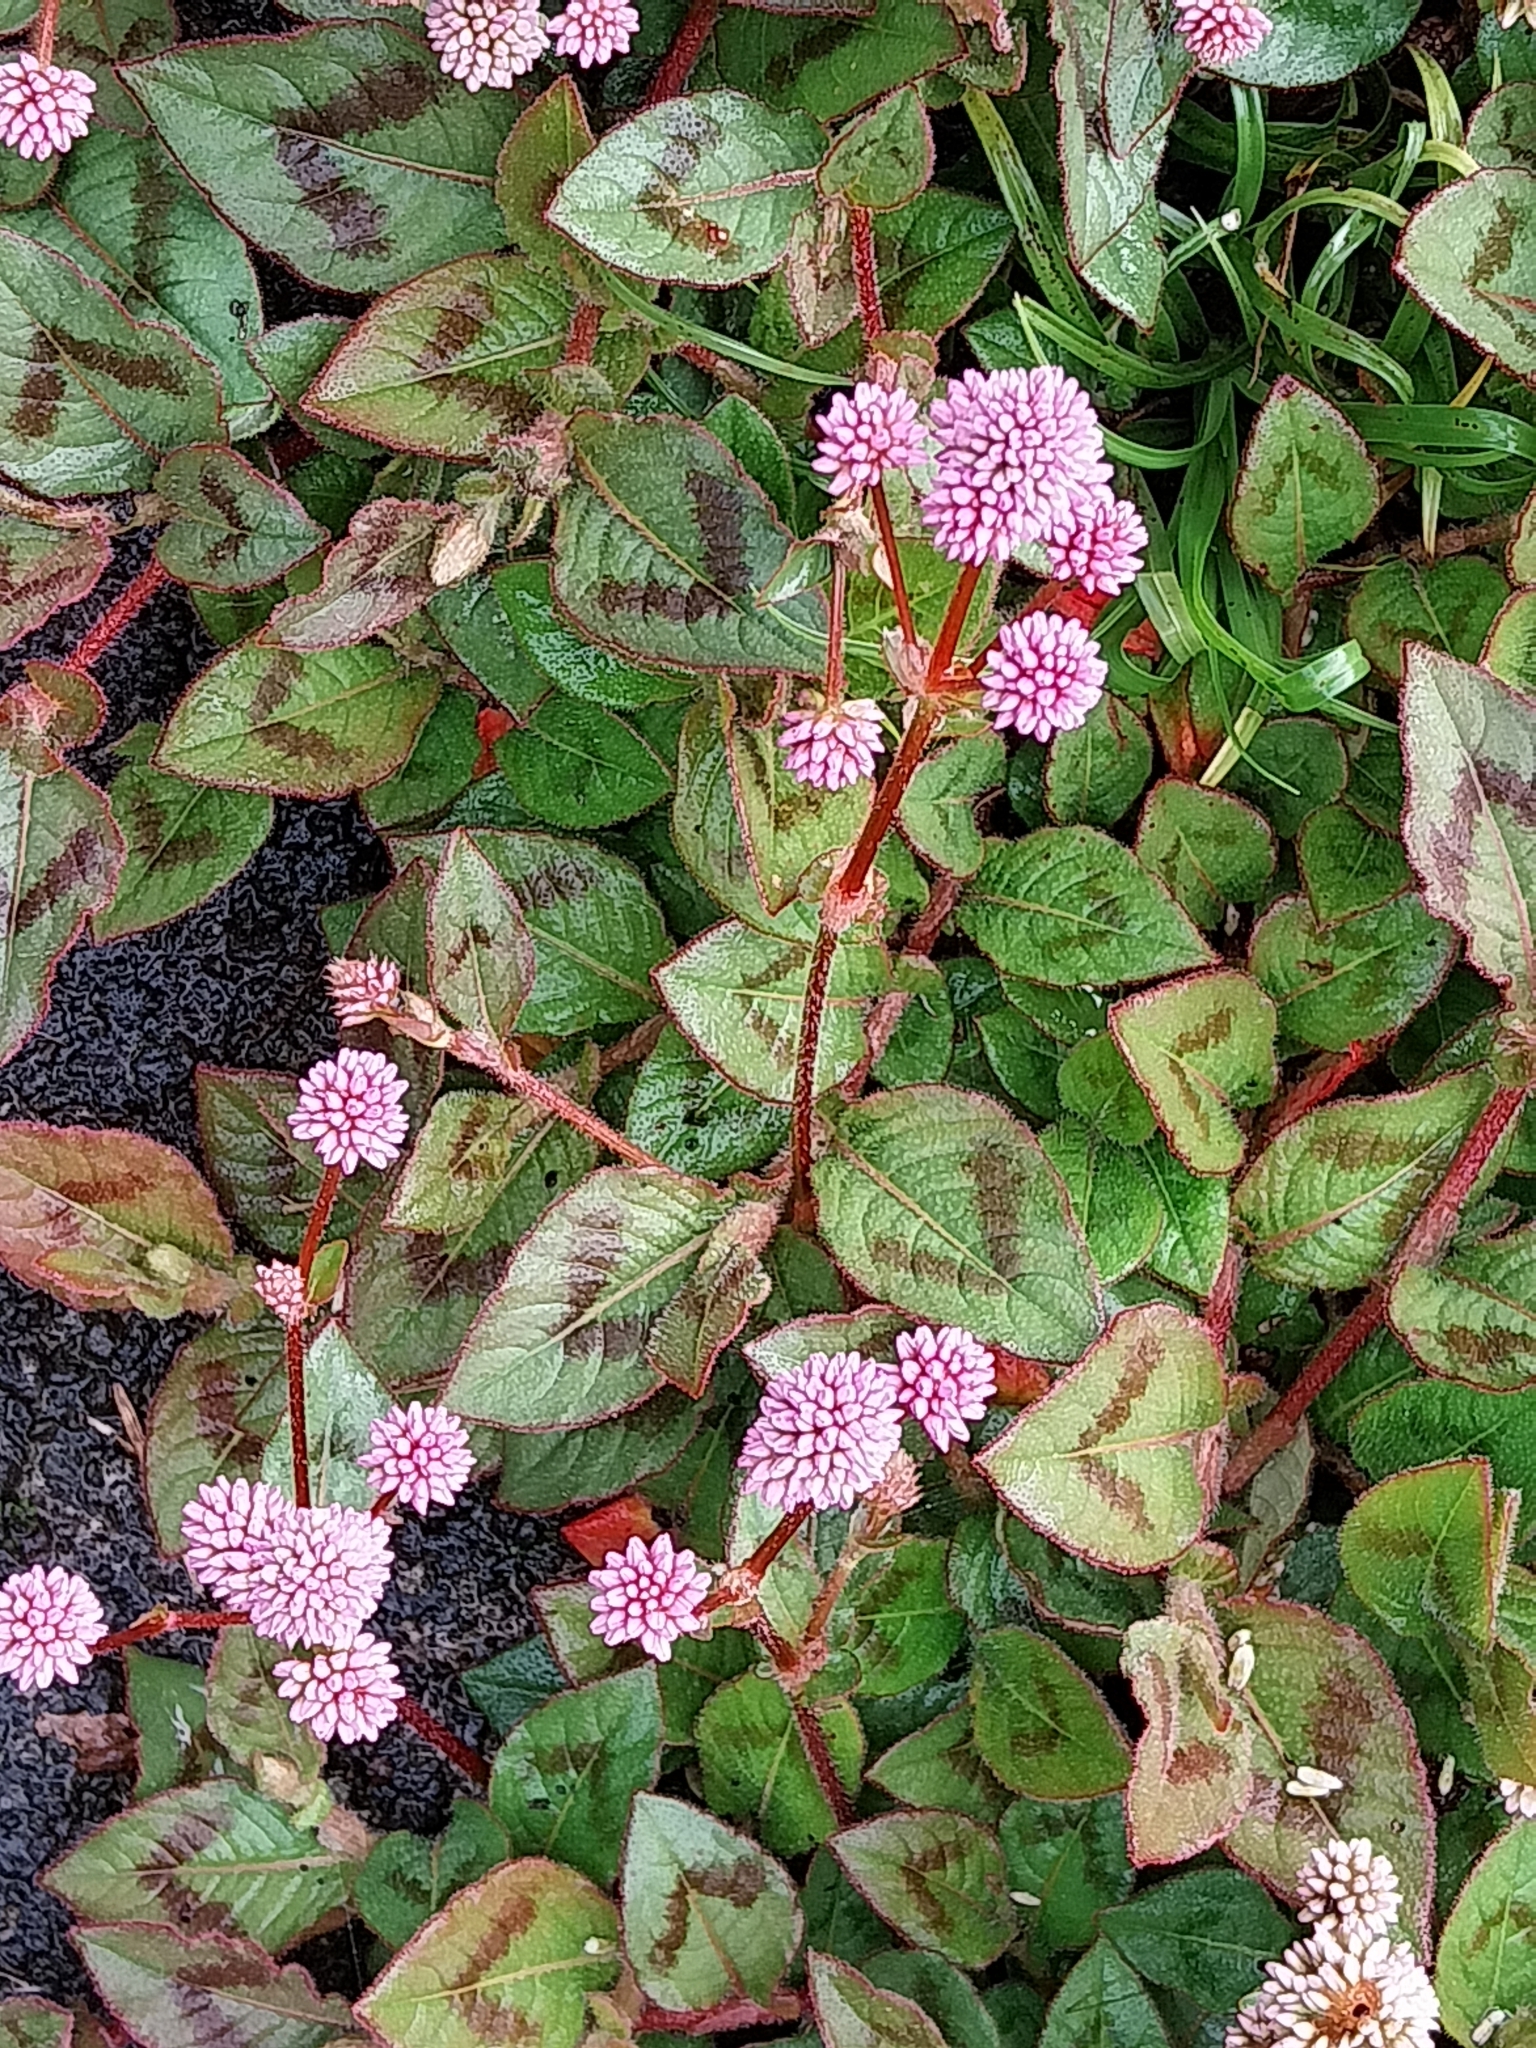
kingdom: Plantae
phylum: Tracheophyta
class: Magnoliopsida
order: Caryophyllales
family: Polygonaceae
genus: Persicaria
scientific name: Persicaria capitata
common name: Pinkhead smartweed
